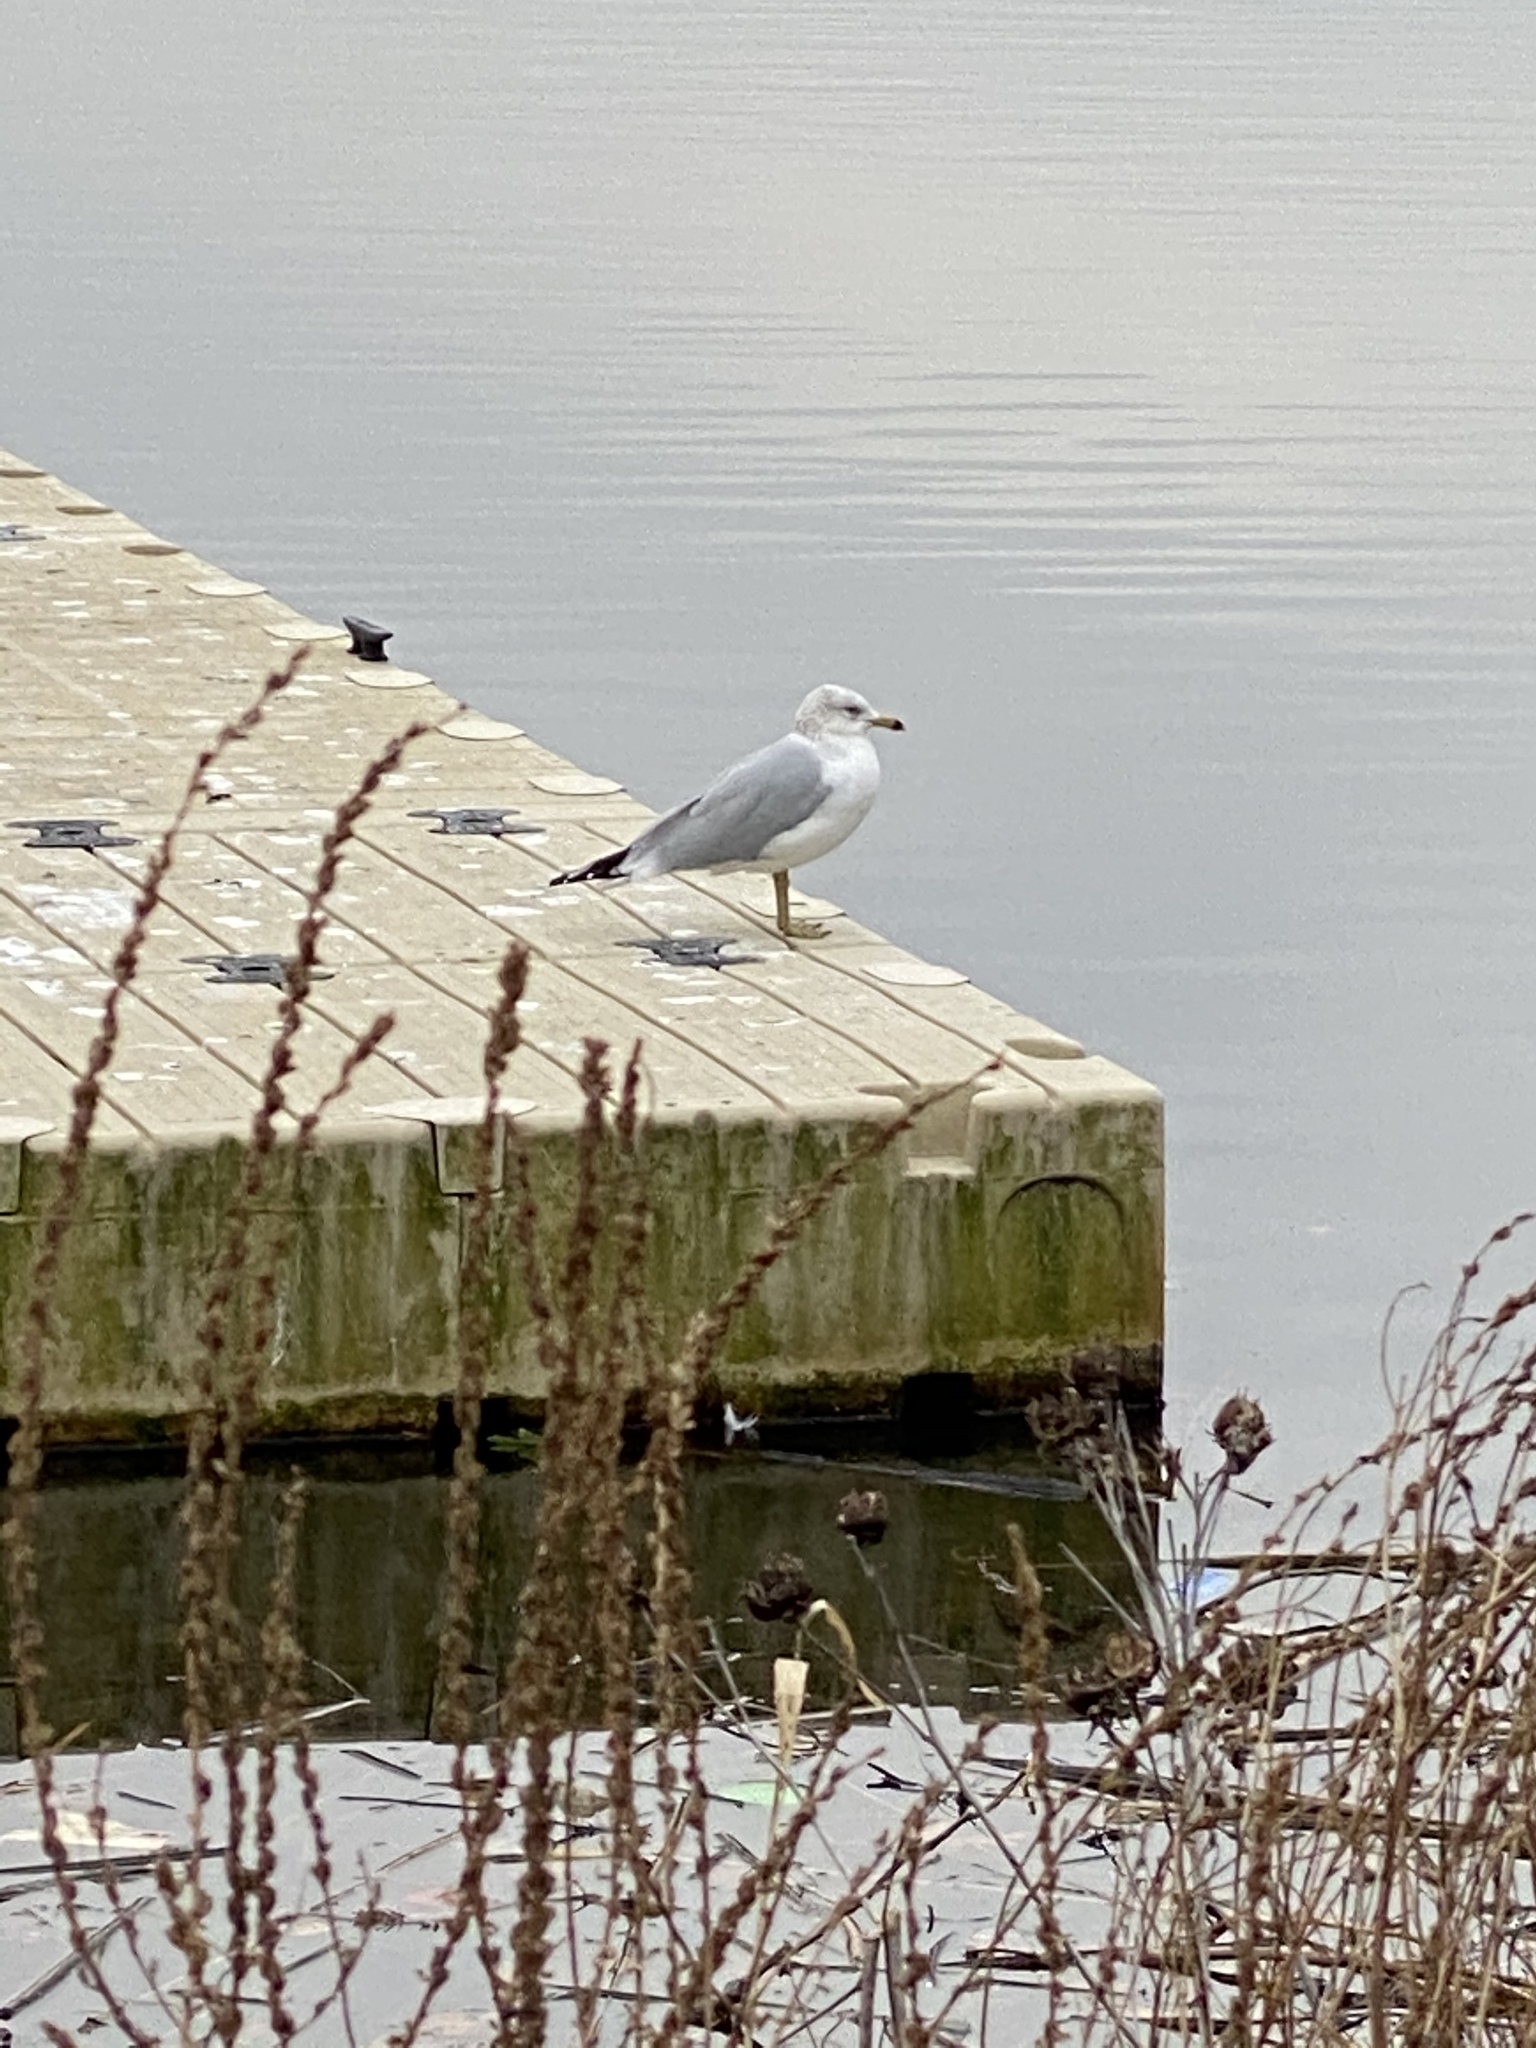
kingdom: Animalia
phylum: Chordata
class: Aves
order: Charadriiformes
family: Laridae
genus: Larus
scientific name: Larus delawarensis
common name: Ring-billed gull
